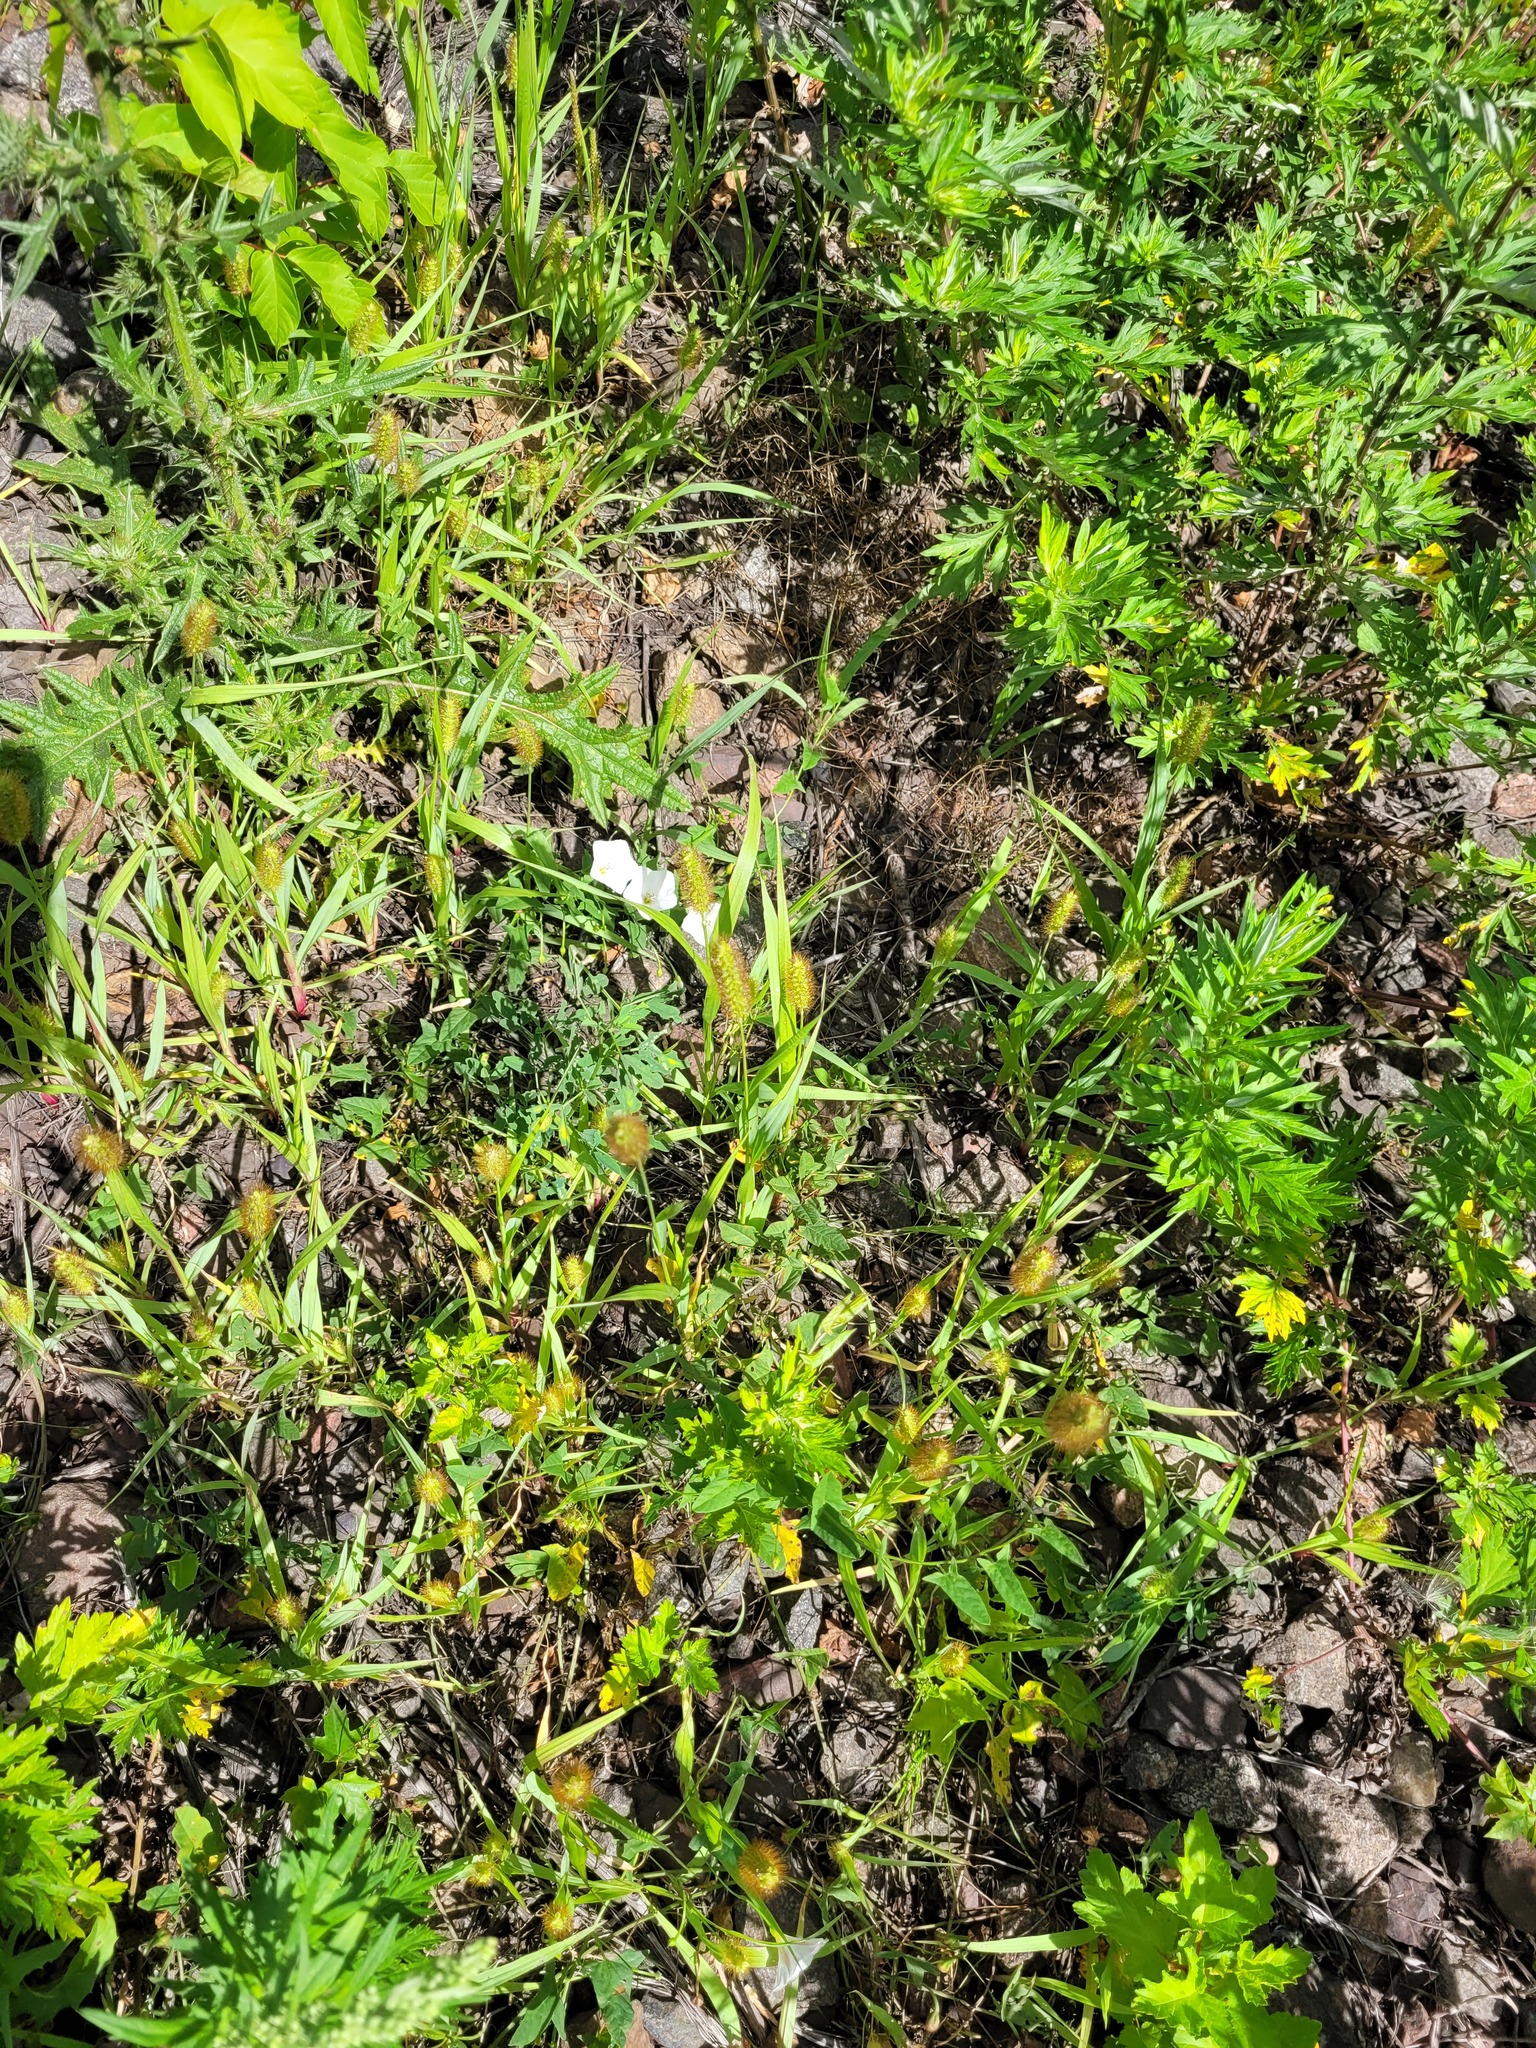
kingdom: Plantae
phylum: Tracheophyta
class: Liliopsida
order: Poales
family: Poaceae
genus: Setaria
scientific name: Setaria pumila
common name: Yellow bristle-grass
